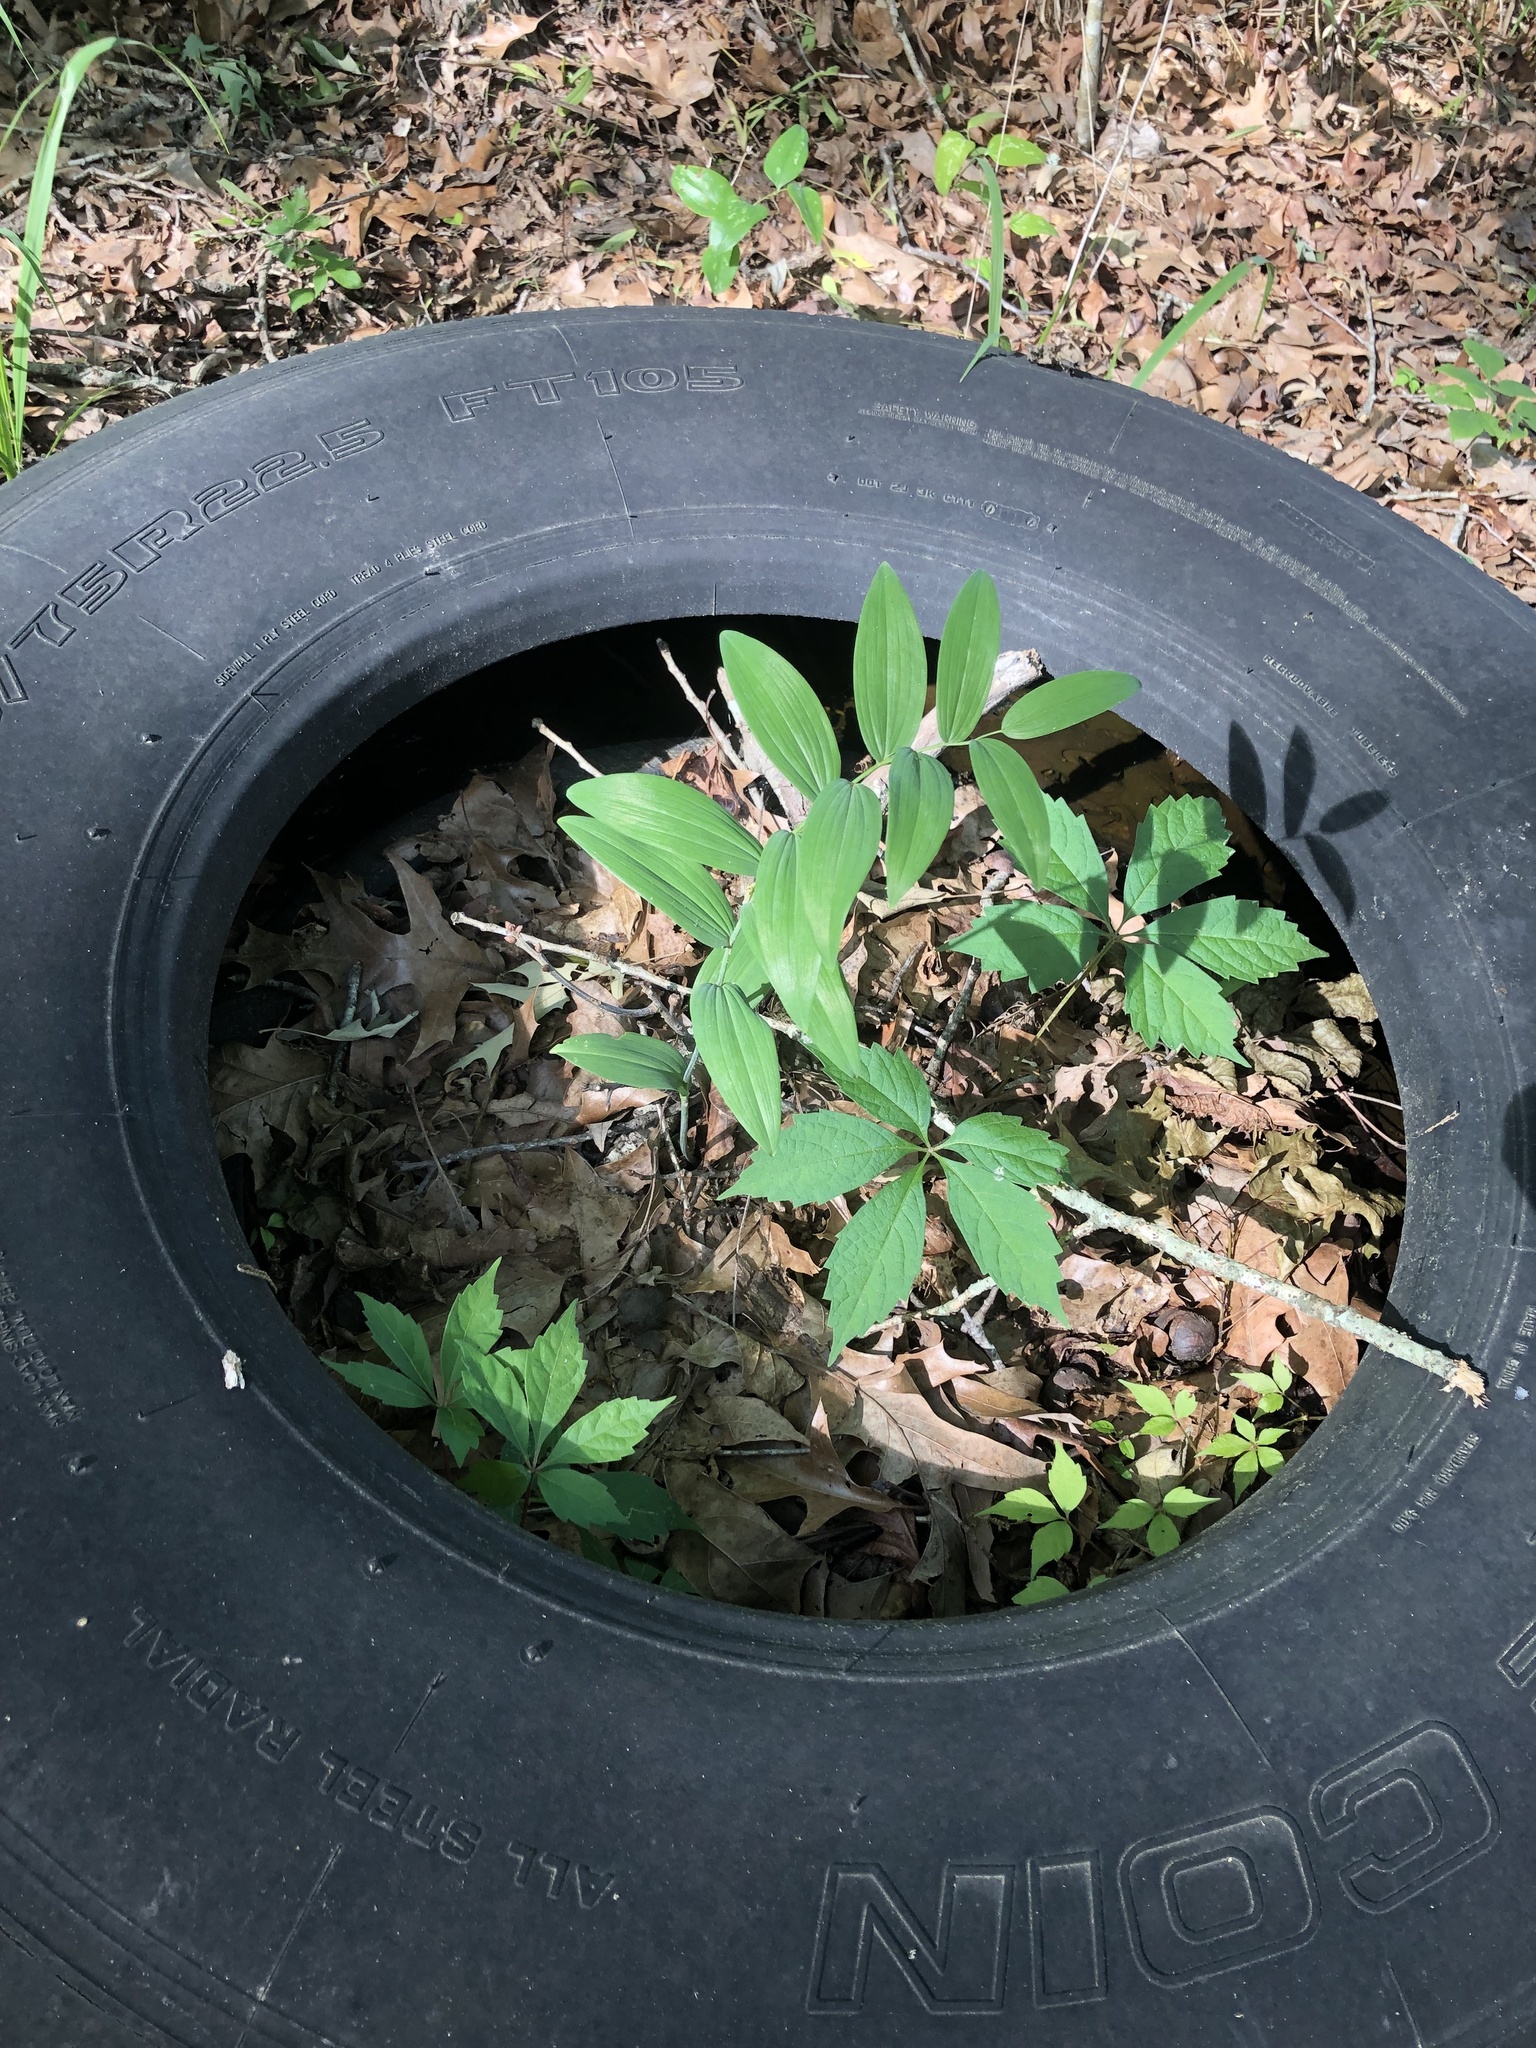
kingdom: Plantae
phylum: Tracheophyta
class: Liliopsida
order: Asparagales
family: Asparagaceae
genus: Polygonatum
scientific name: Polygonatum biflorum
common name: American solomon's-seal
